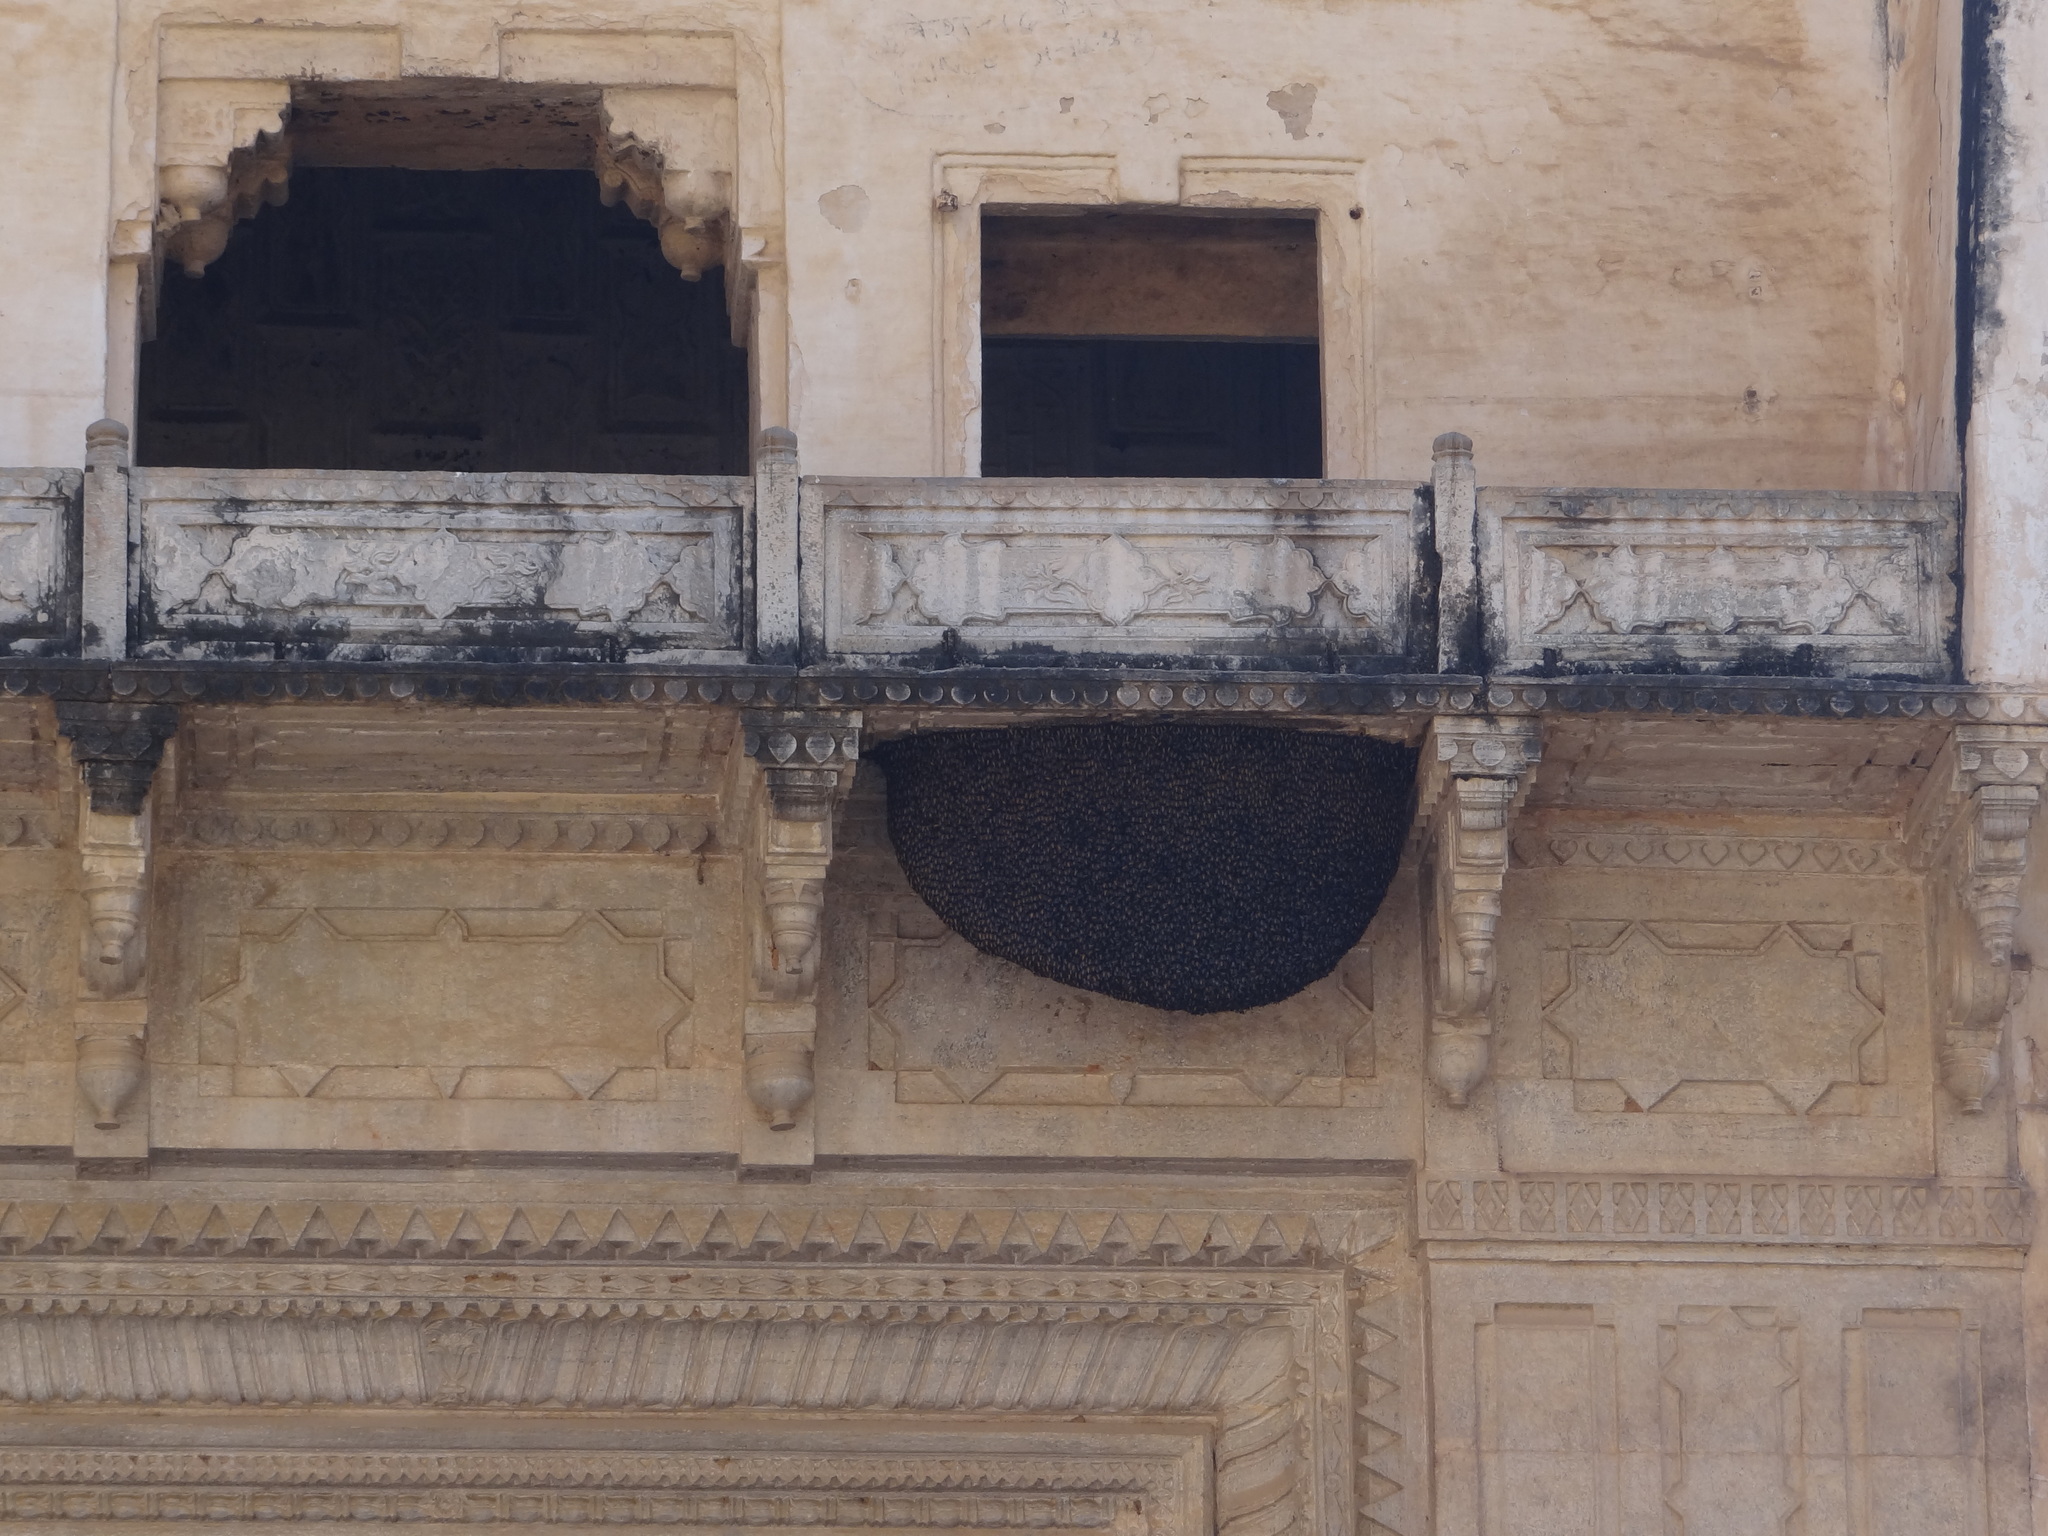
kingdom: Animalia
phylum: Arthropoda
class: Insecta
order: Hymenoptera
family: Apidae
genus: Apis
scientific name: Apis dorsata
